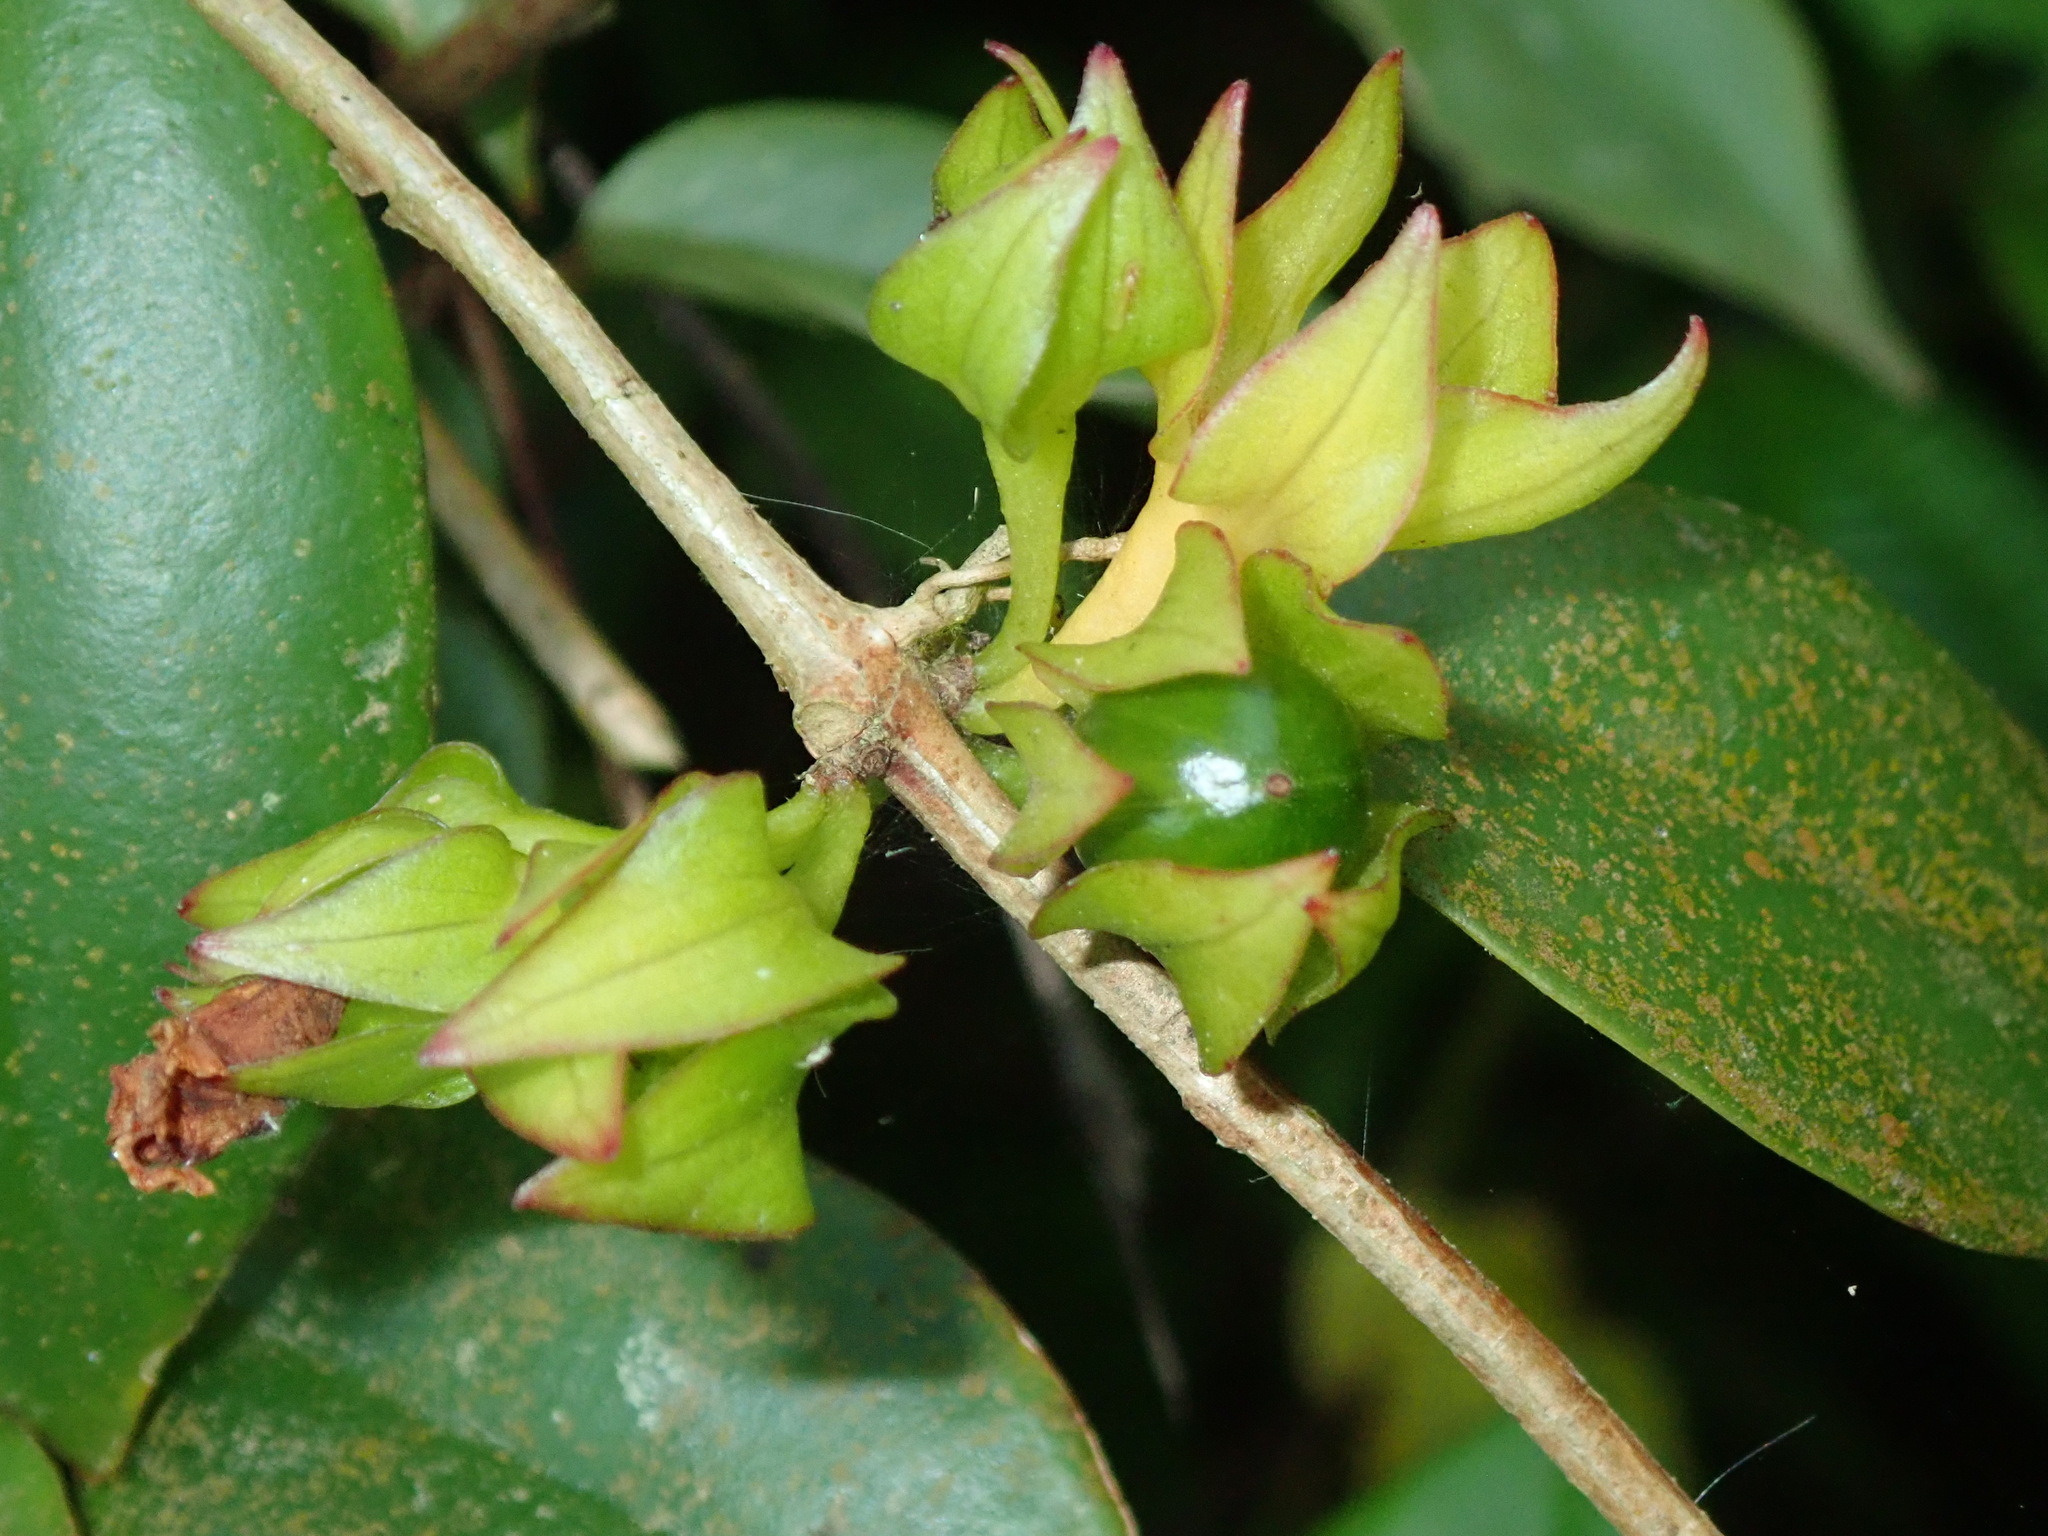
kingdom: Plantae
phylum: Tracheophyta
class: Magnoliopsida
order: Lamiales
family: Gesneriaceae
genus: Codonanthe
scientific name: Codonanthe gracilis
